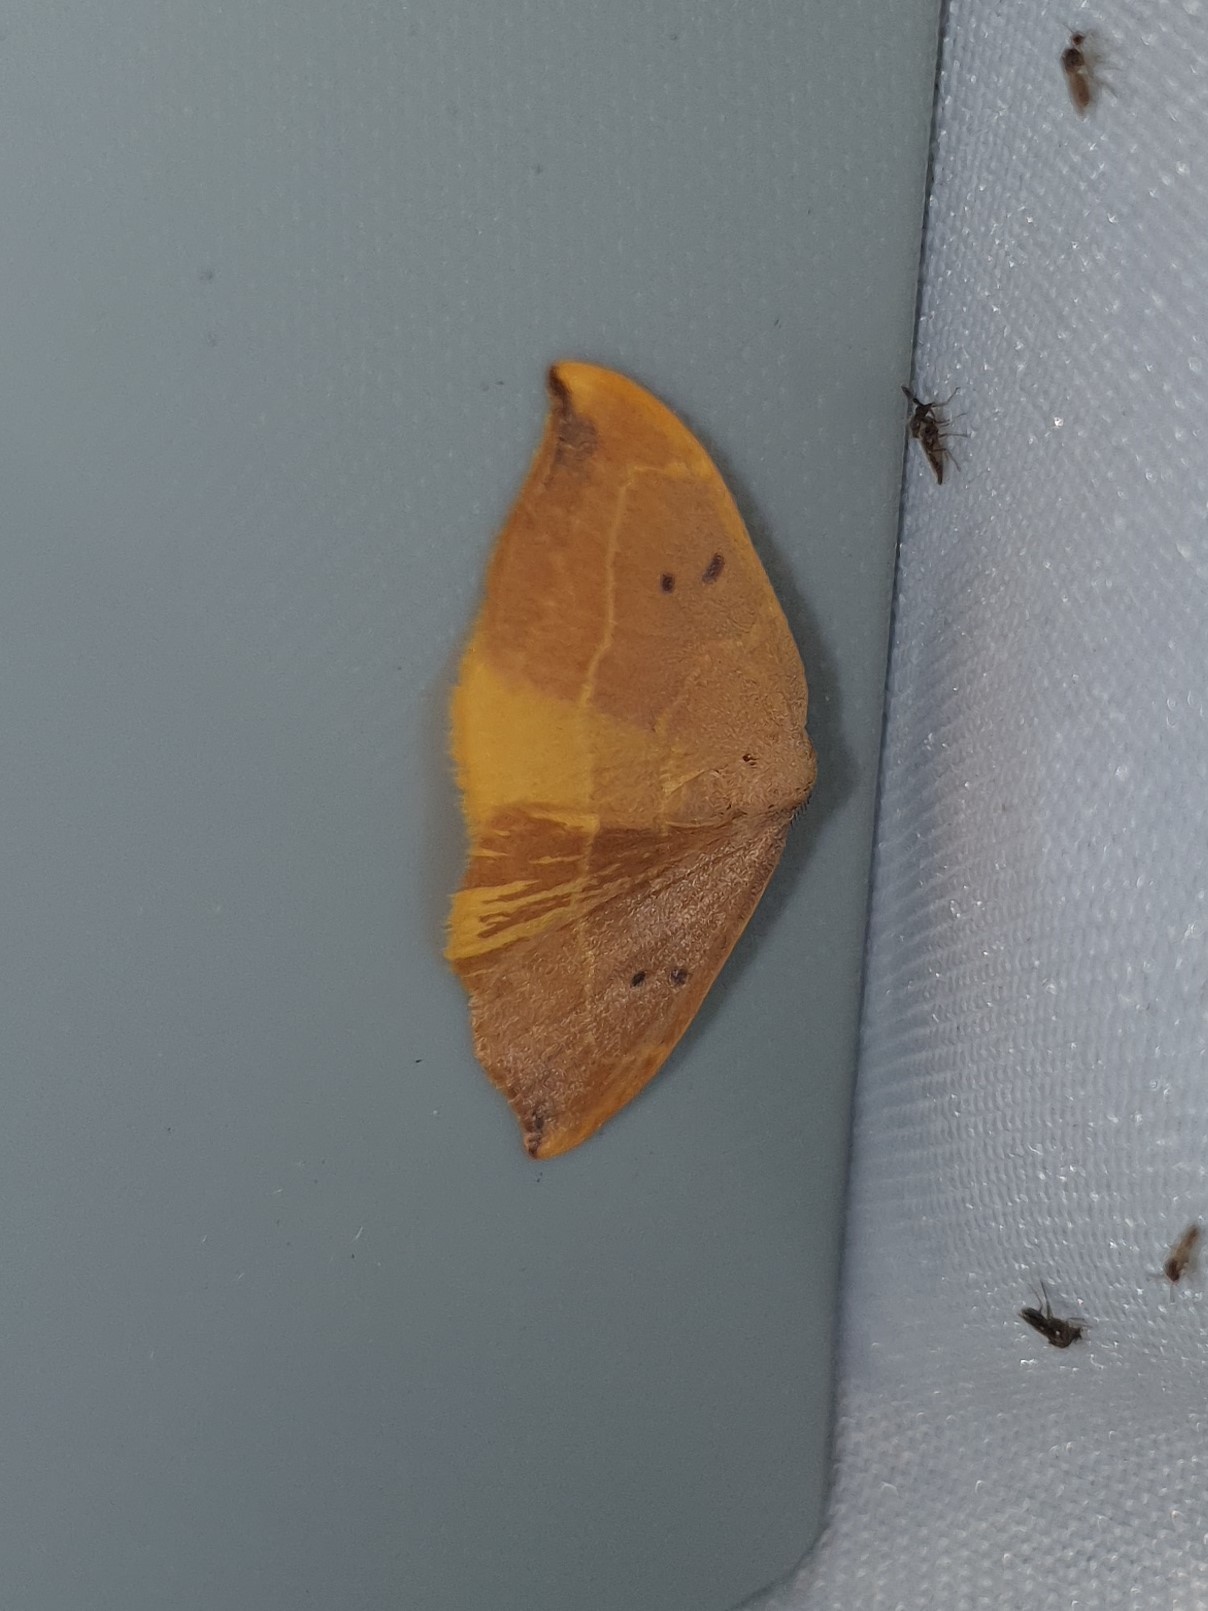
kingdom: Animalia
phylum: Arthropoda
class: Insecta
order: Lepidoptera
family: Drepanidae
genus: Watsonalla
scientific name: Watsonalla binaria
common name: Oak hook-tip
